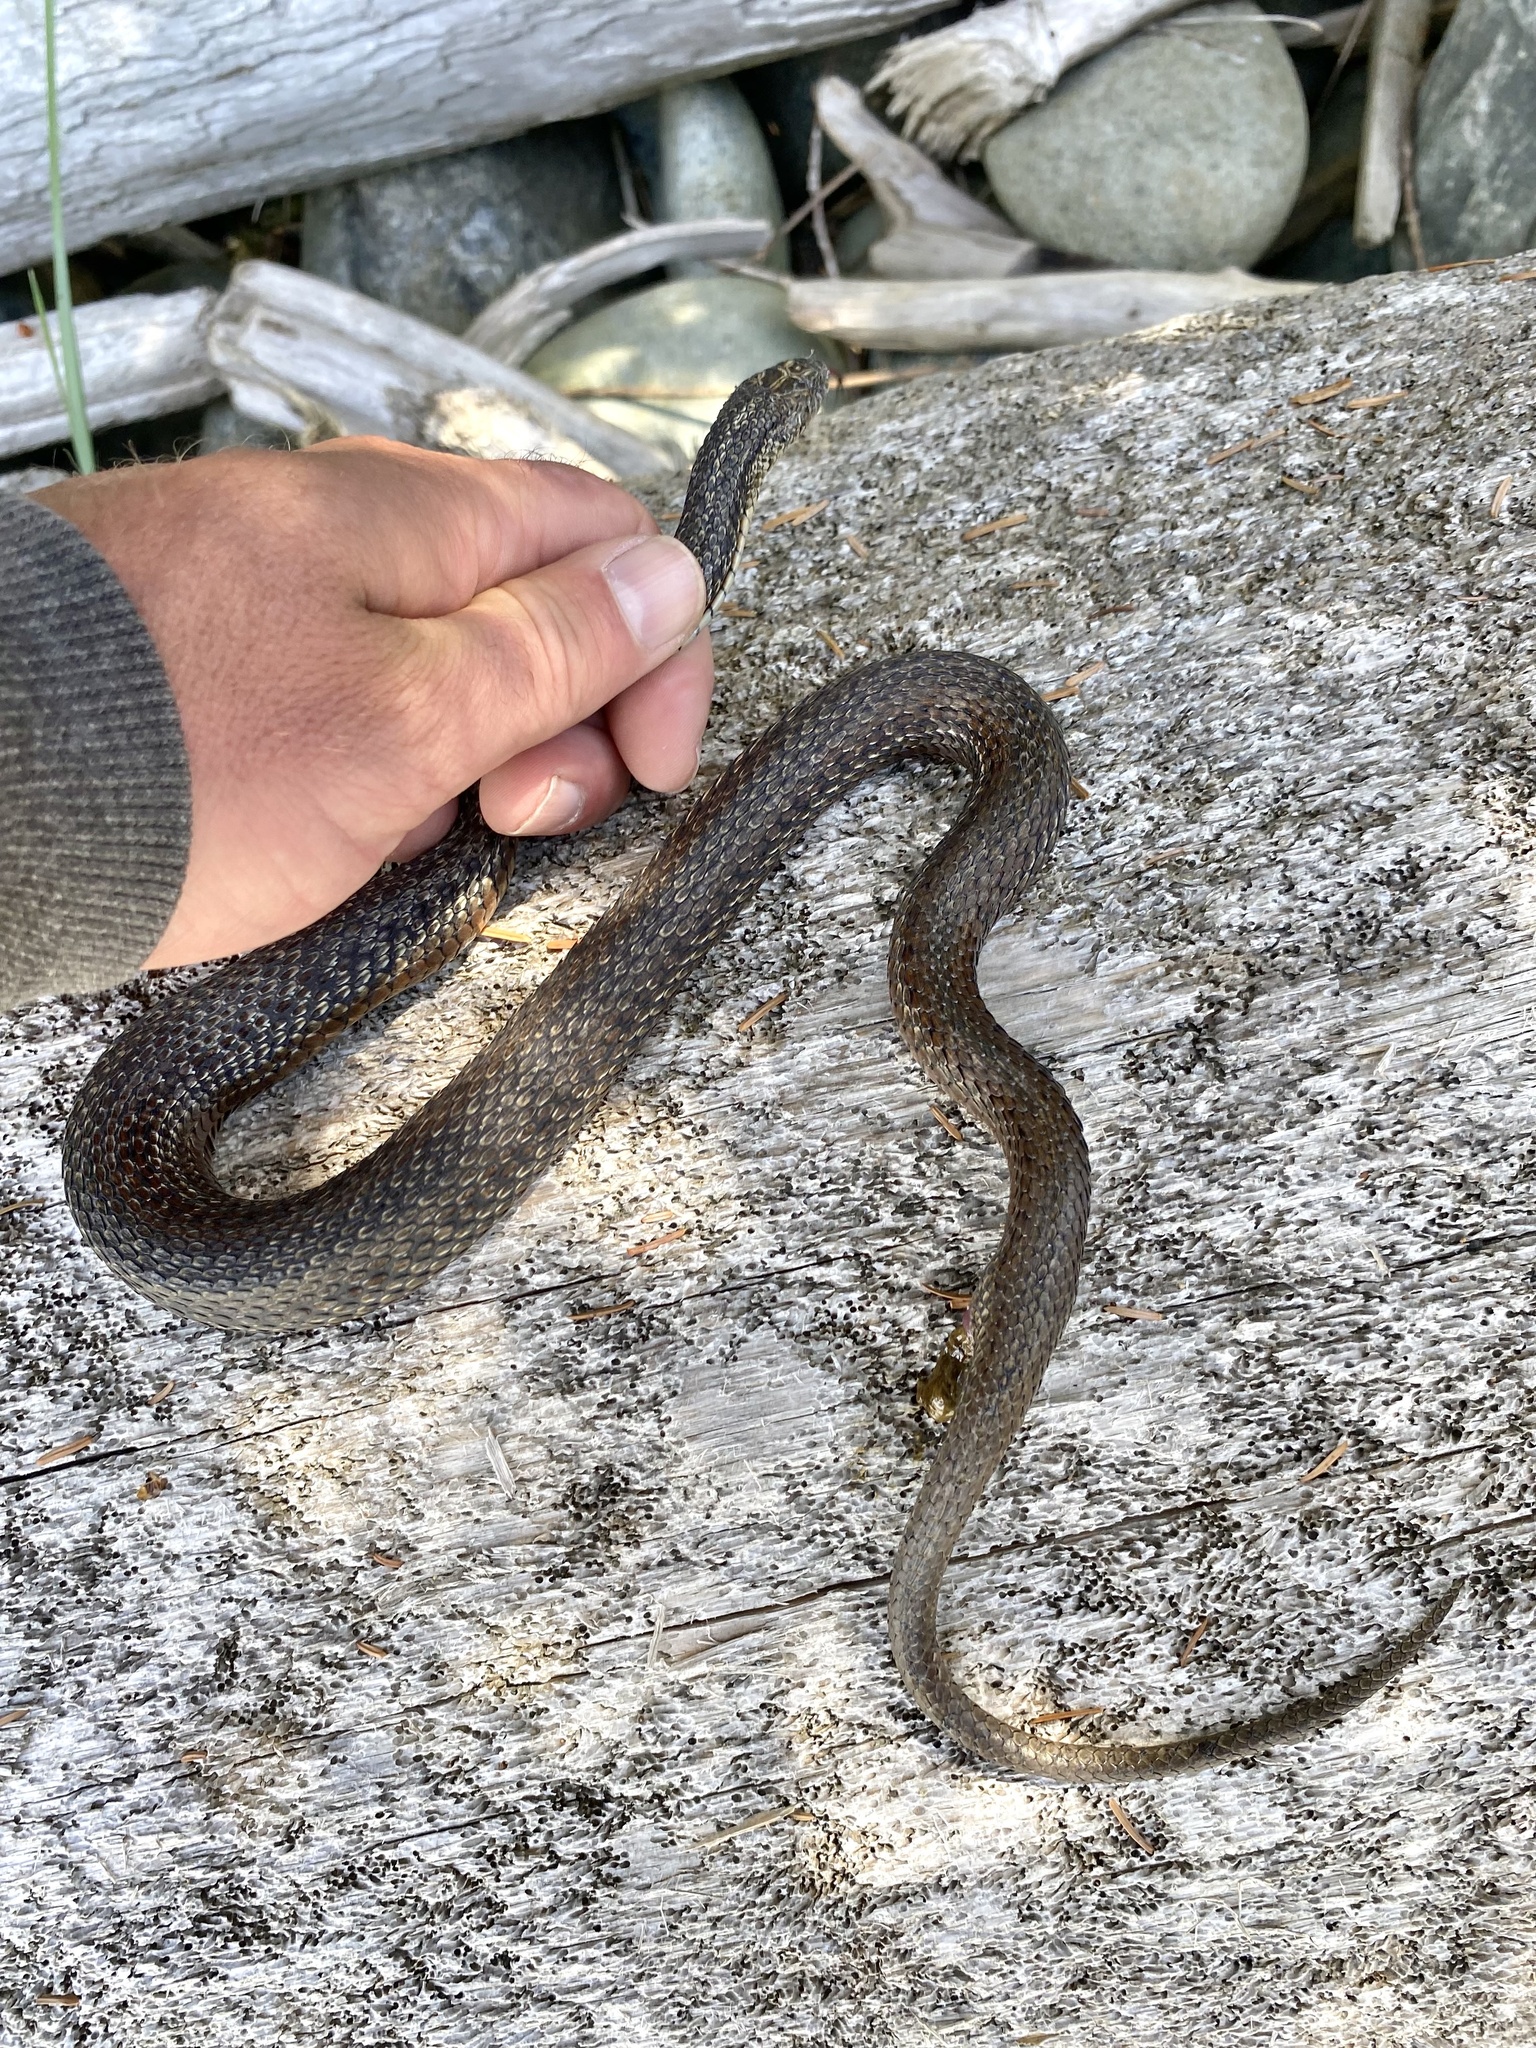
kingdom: Animalia
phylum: Chordata
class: Squamata
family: Colubridae
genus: Thamnophis
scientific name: Thamnophis ordinoides
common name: Northwestern garter snake
